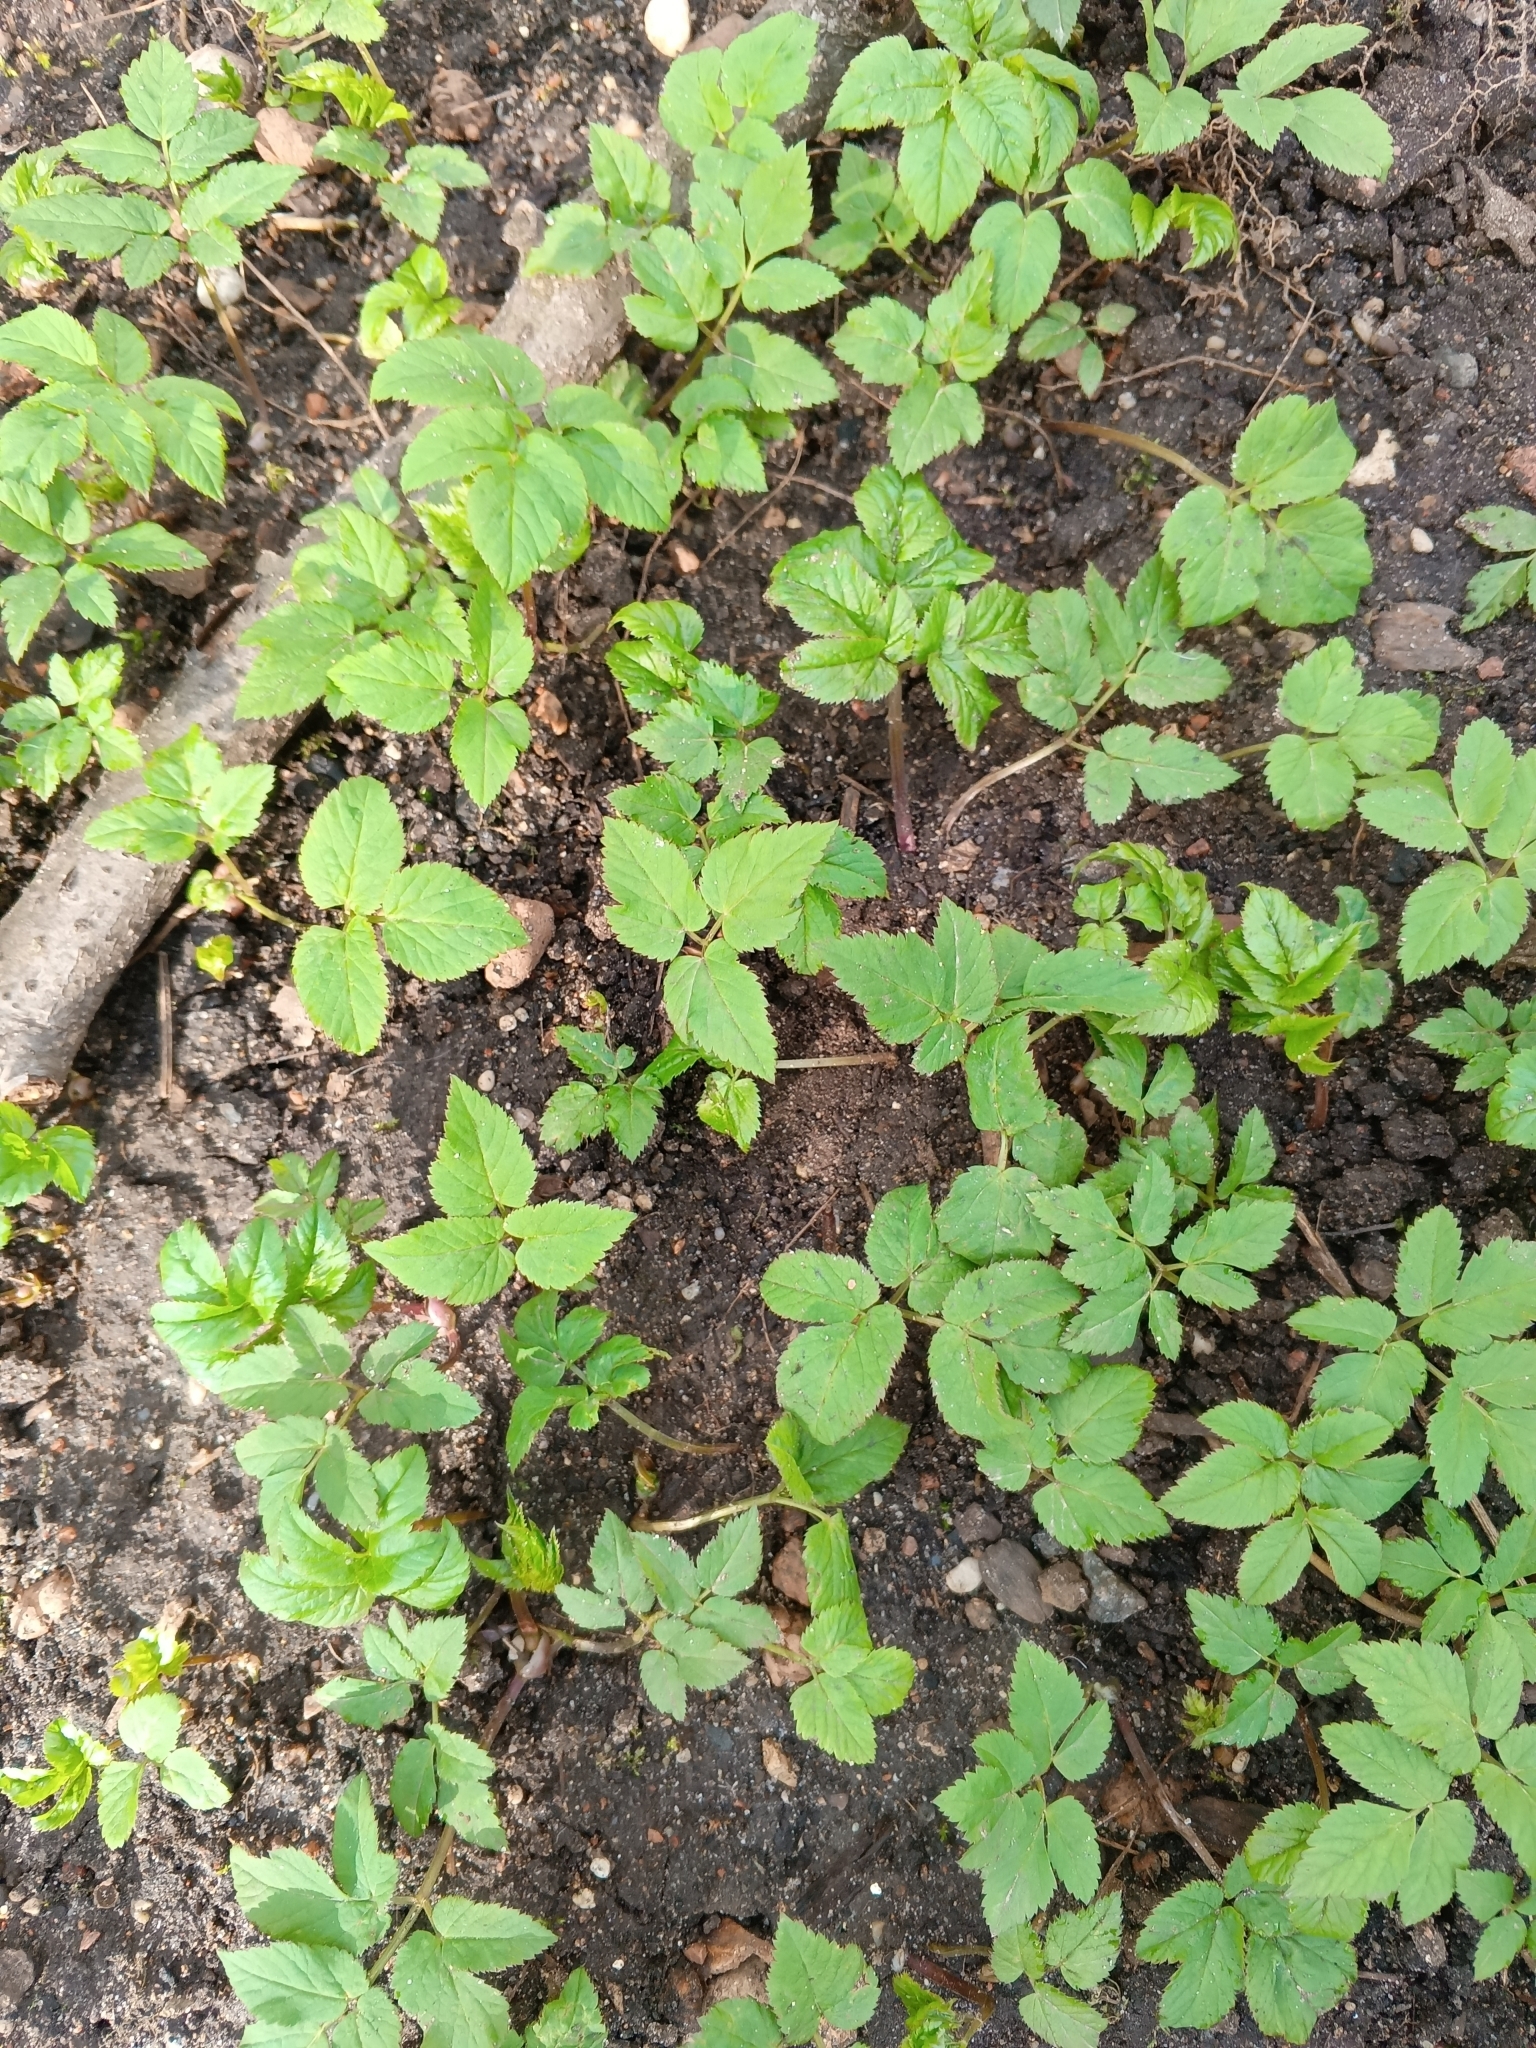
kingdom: Plantae
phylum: Tracheophyta
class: Magnoliopsida
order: Apiales
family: Apiaceae
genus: Aegopodium
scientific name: Aegopodium podagraria
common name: Ground-elder
